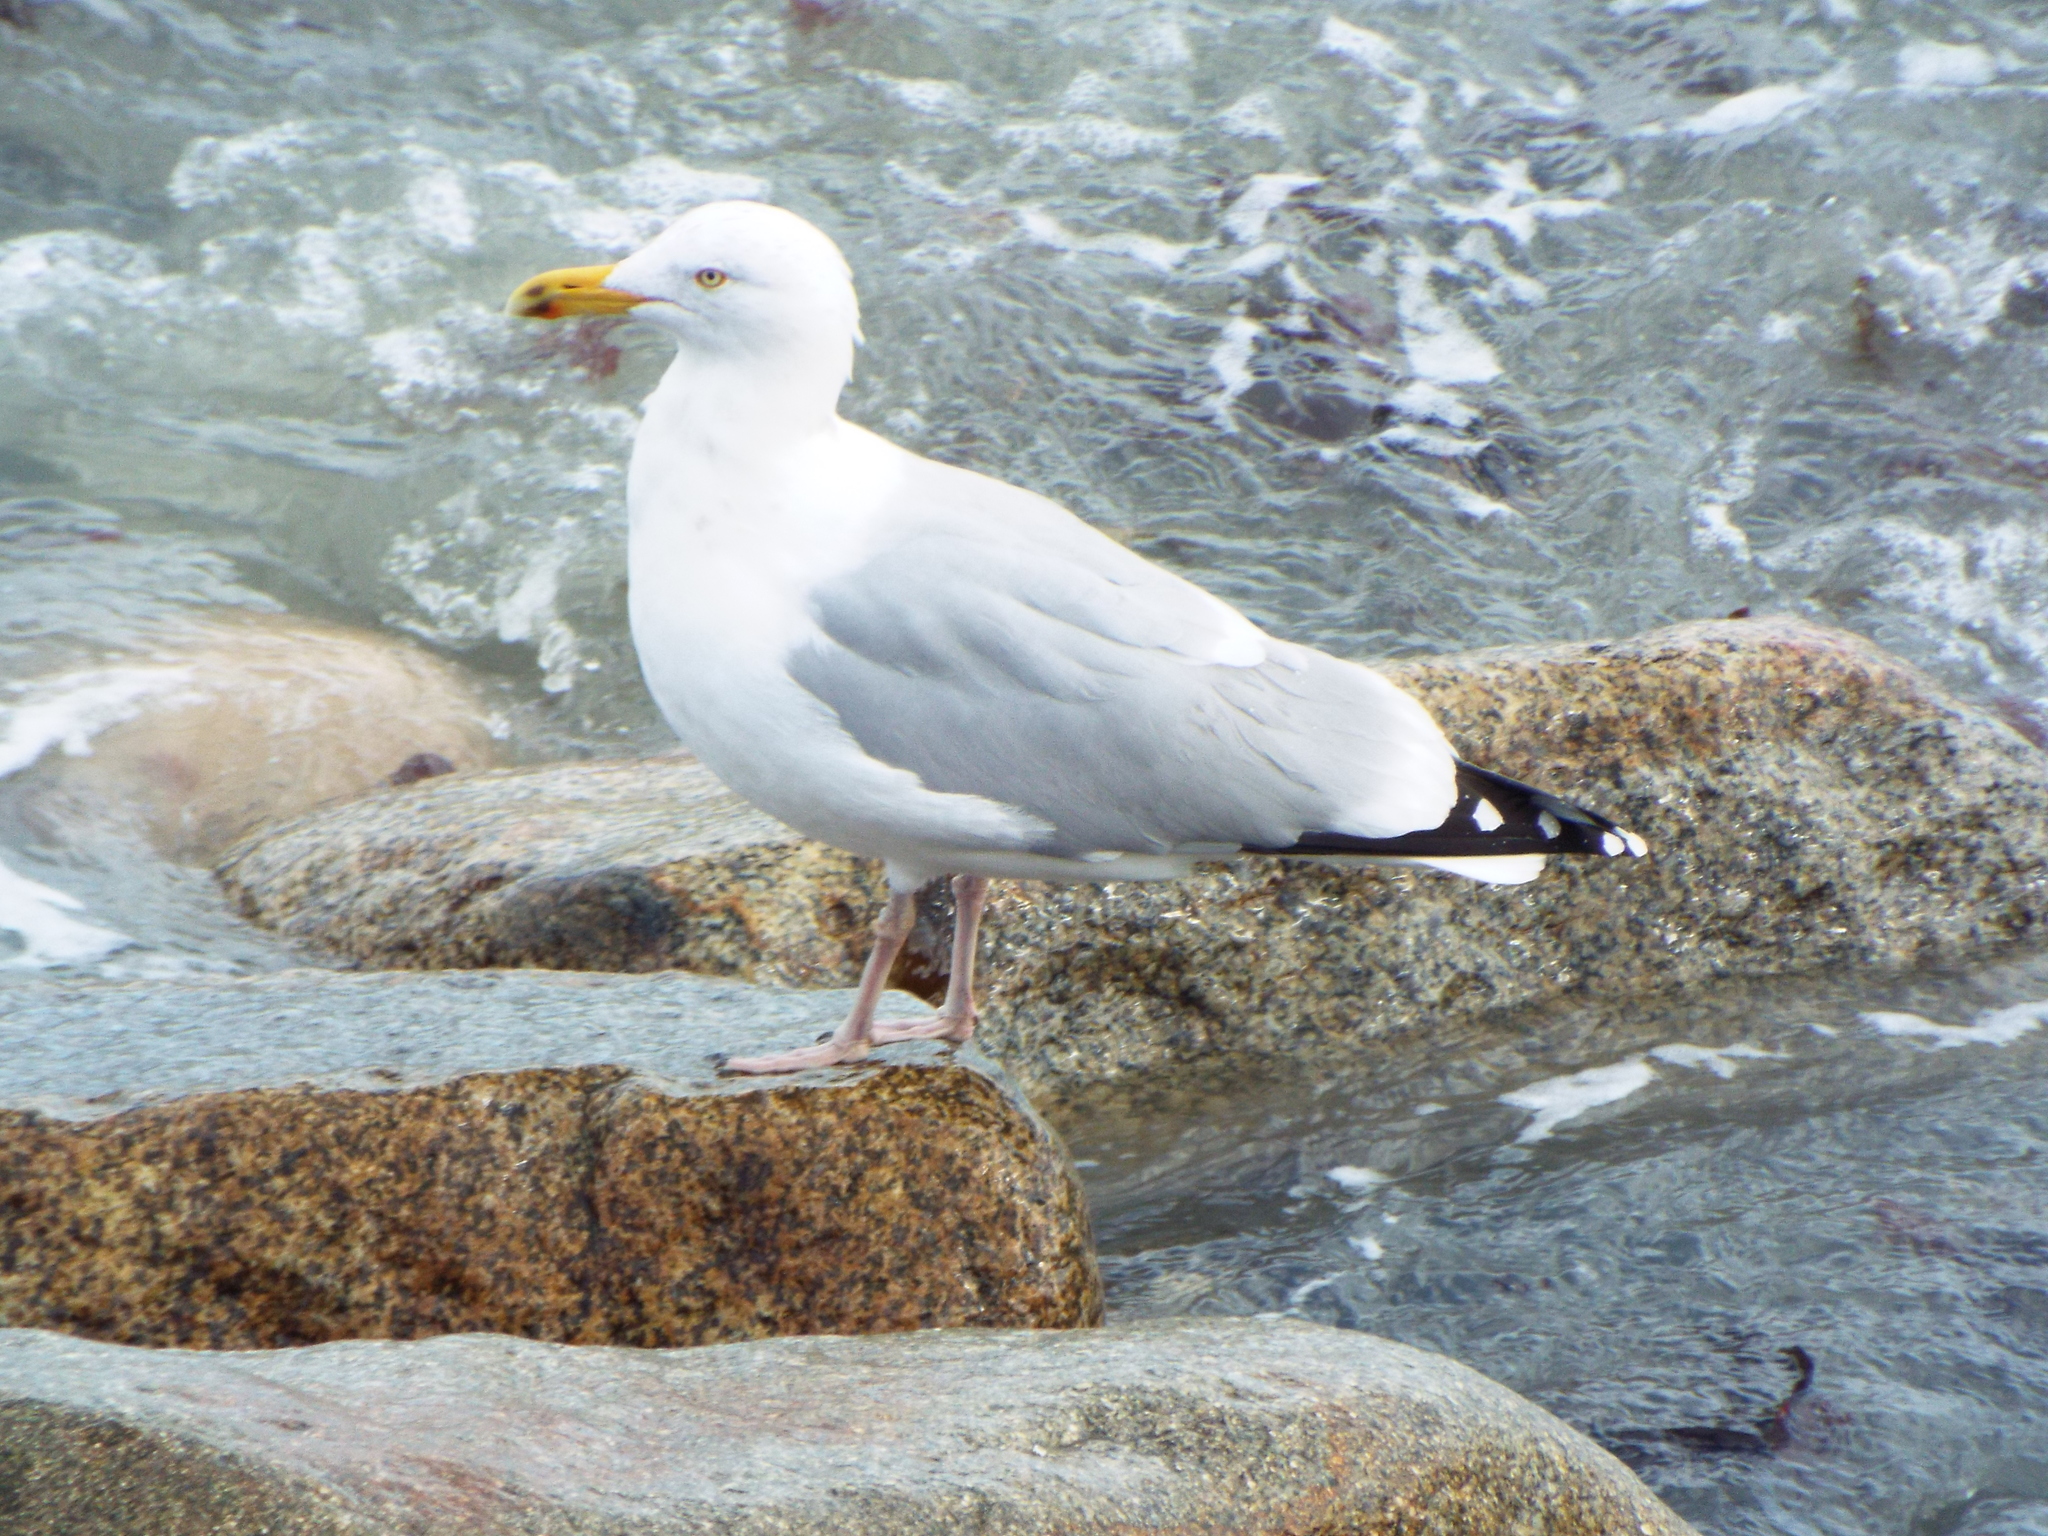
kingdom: Animalia
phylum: Chordata
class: Aves
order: Charadriiformes
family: Laridae
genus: Larus
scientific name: Larus argentatus
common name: Herring gull
